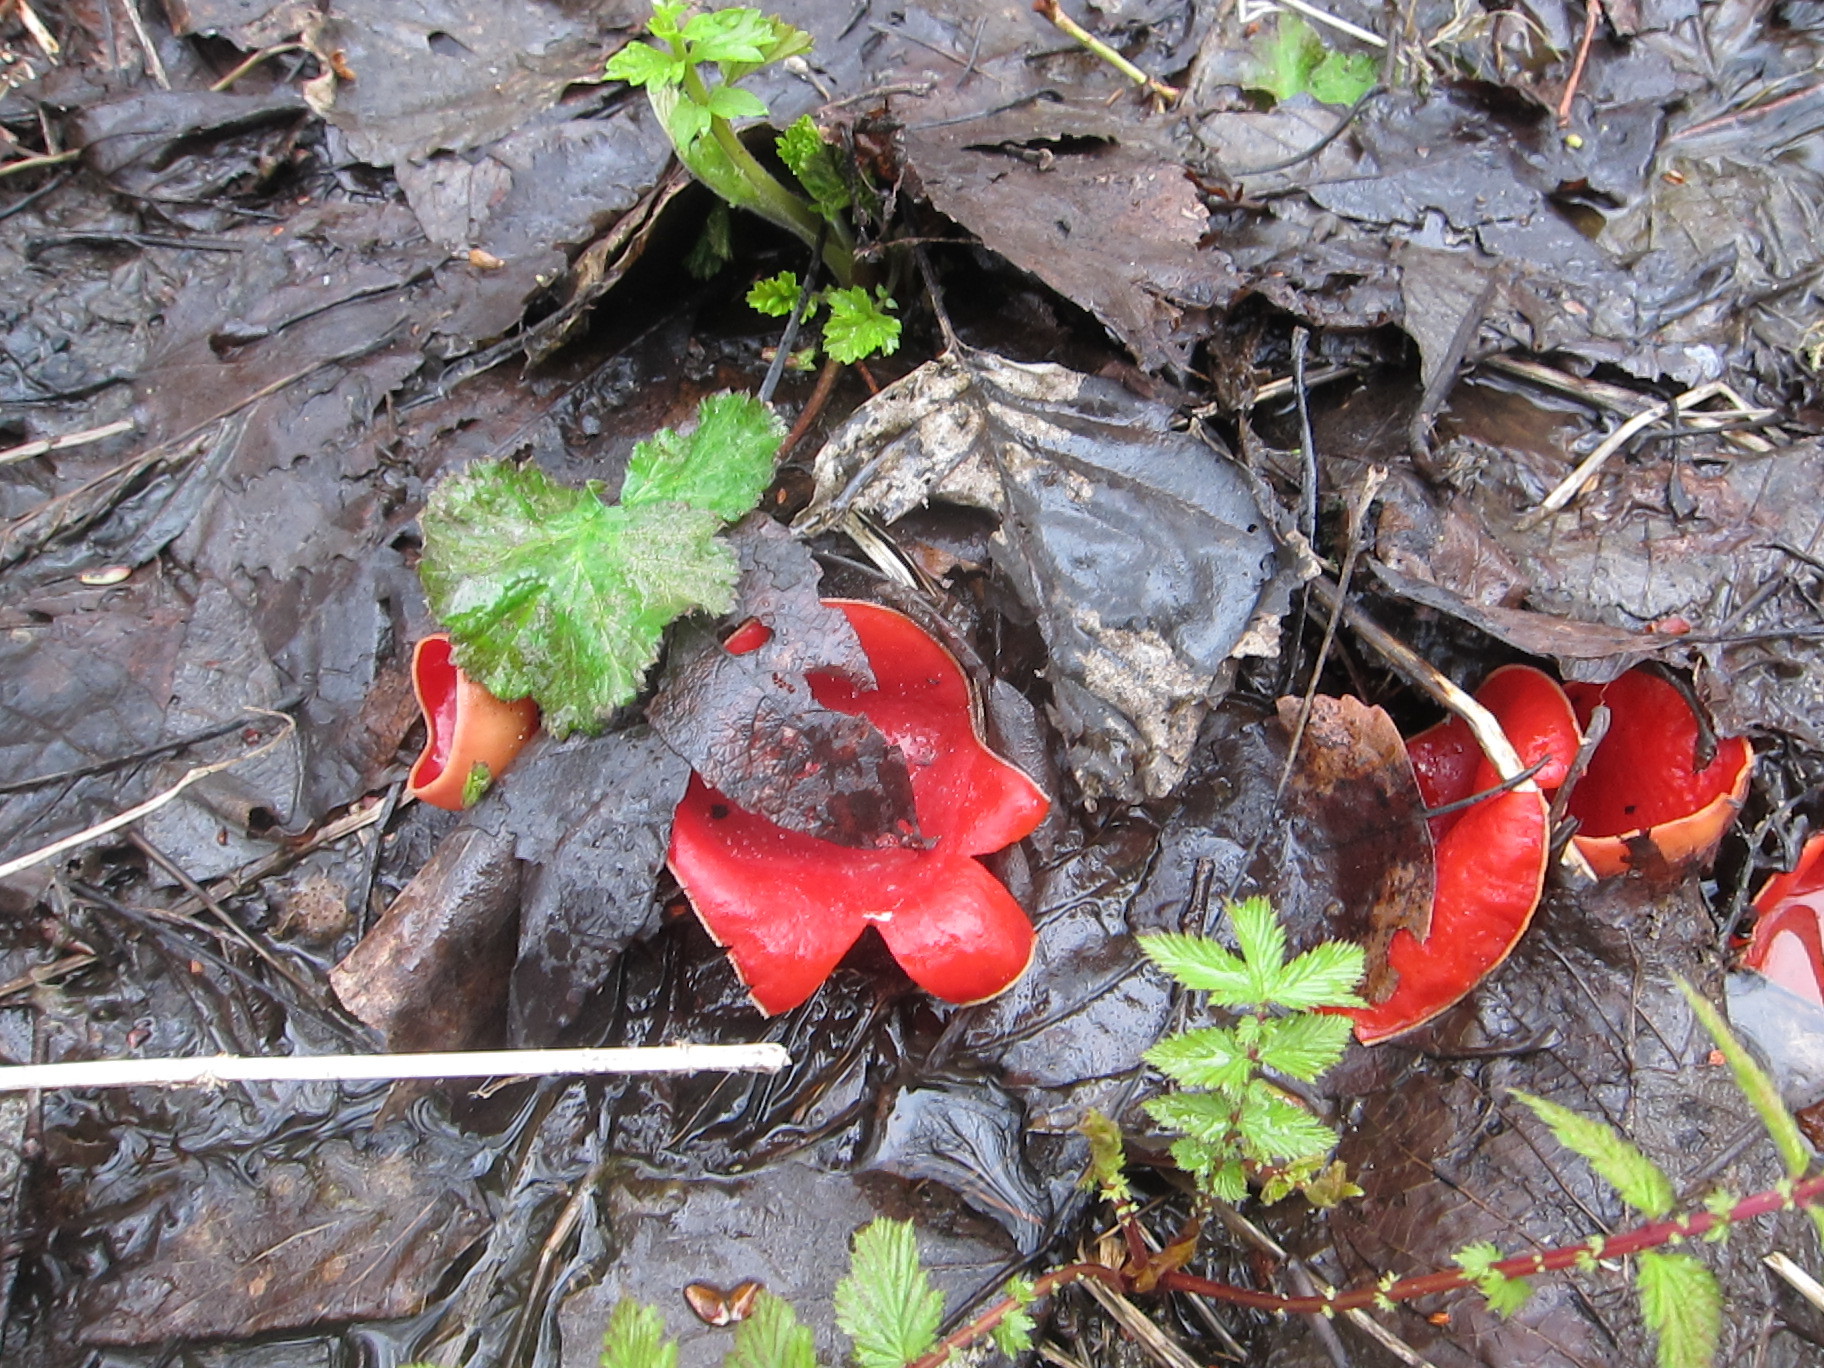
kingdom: Fungi
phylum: Ascomycota
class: Pezizomycetes
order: Pezizales
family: Sarcoscyphaceae
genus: Sarcoscypha
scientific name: Sarcoscypha austriaca
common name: Scarlet elfcup
